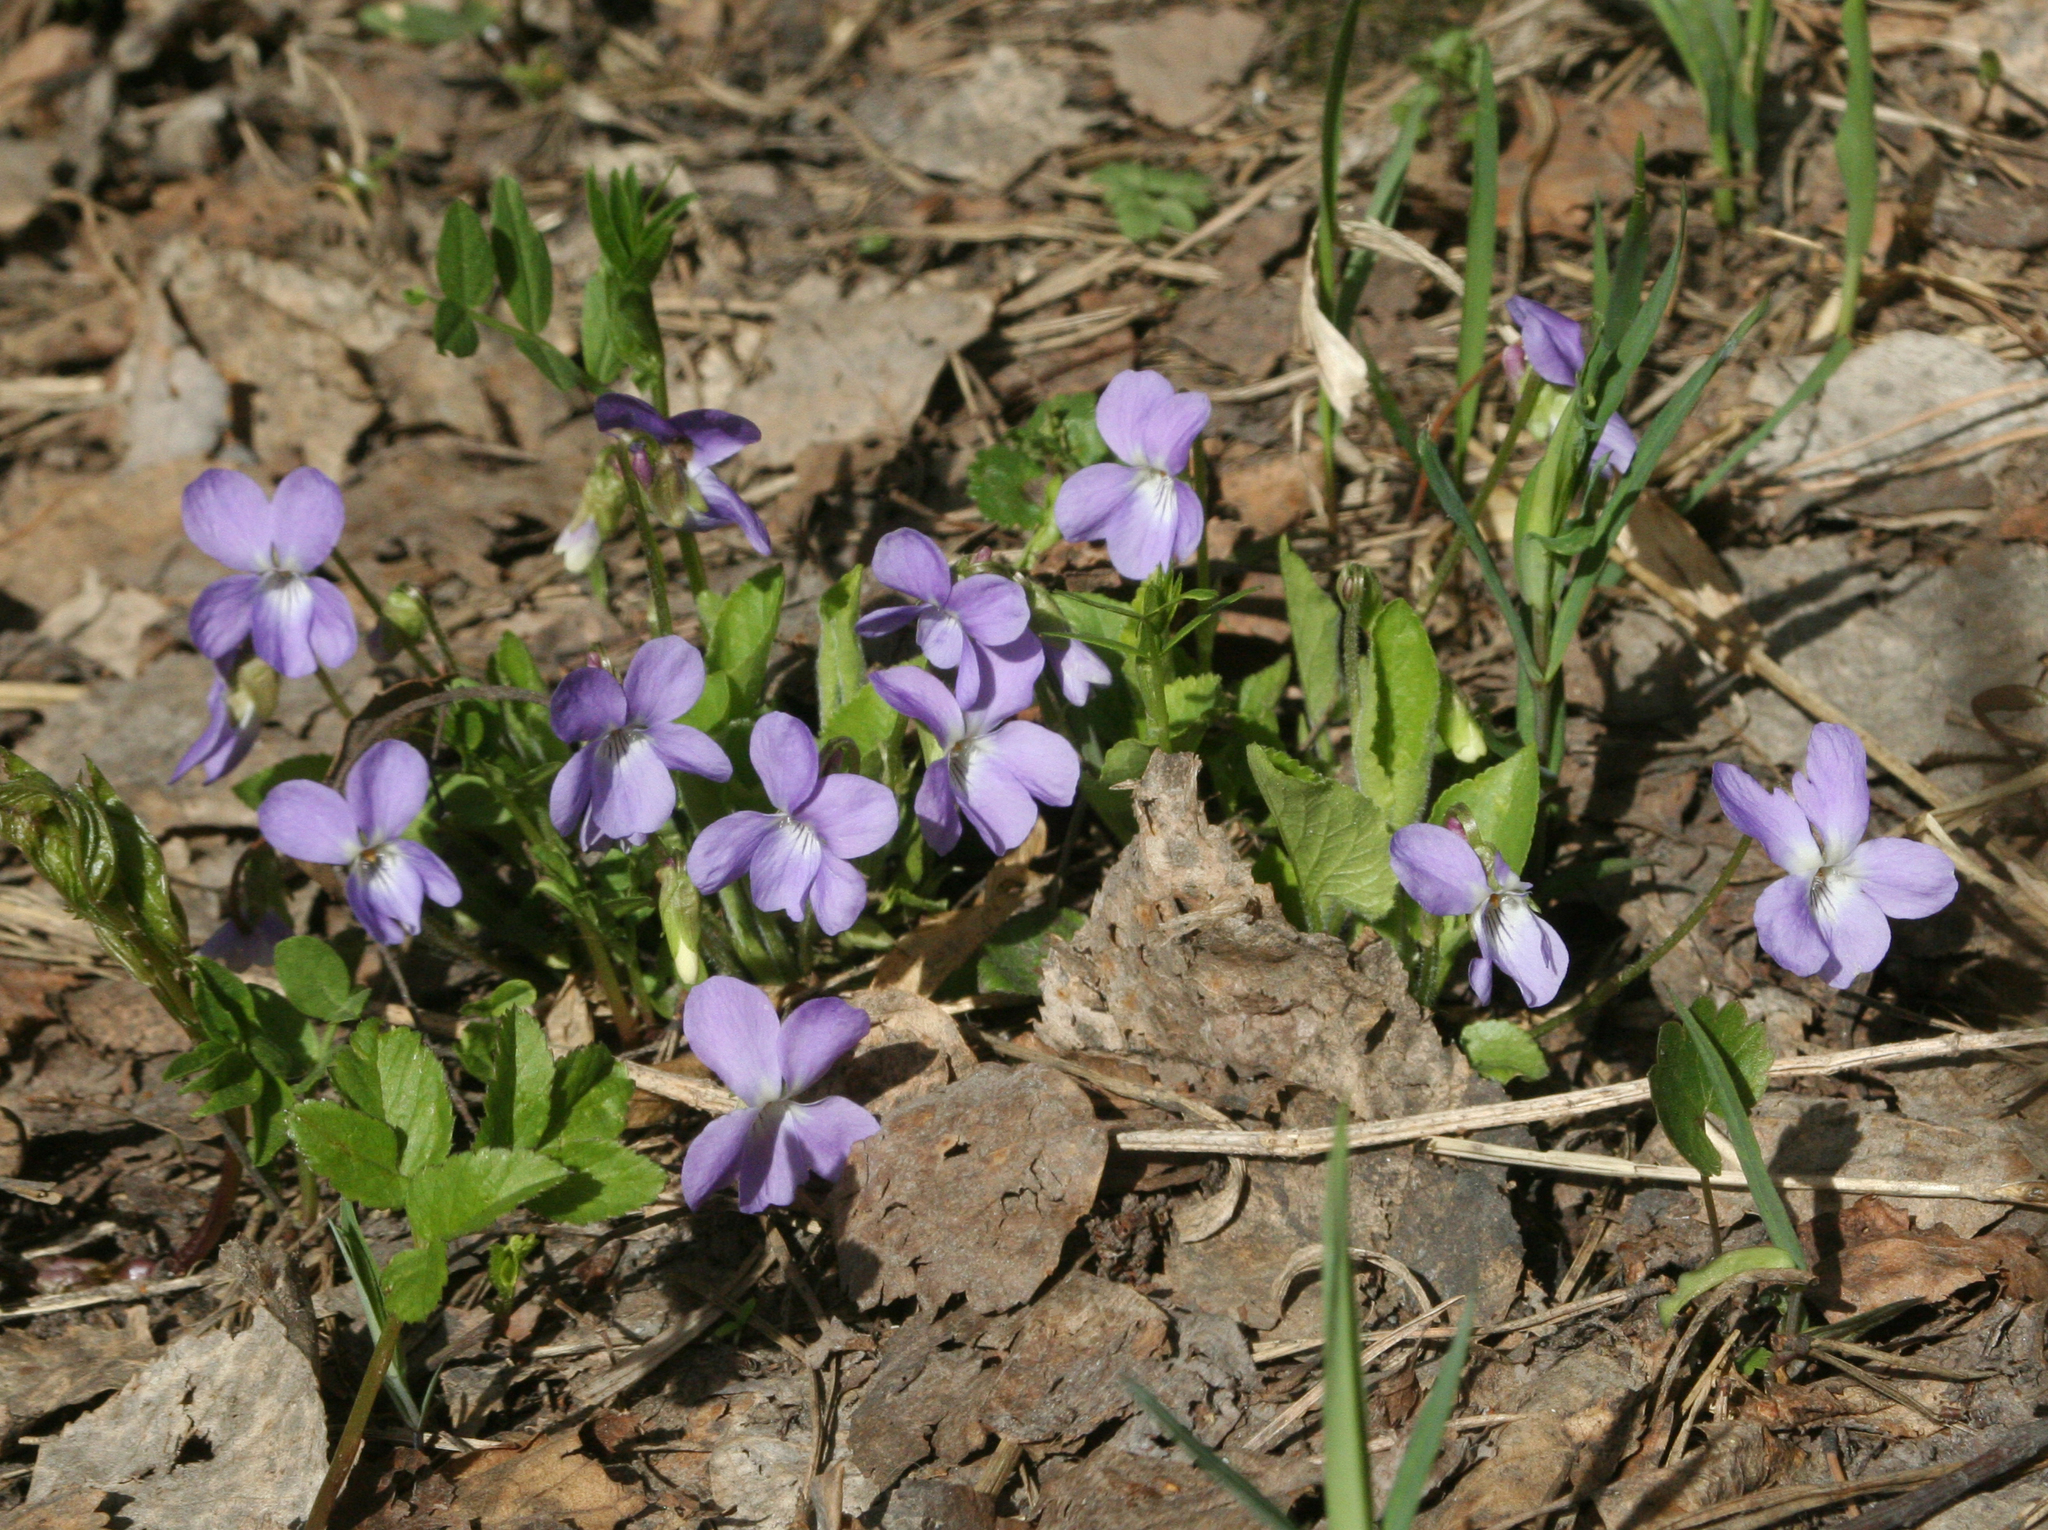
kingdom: Plantae
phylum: Tracheophyta
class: Magnoliopsida
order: Malpighiales
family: Violaceae
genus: Viola
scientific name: Viola hirta
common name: Hairy violet
